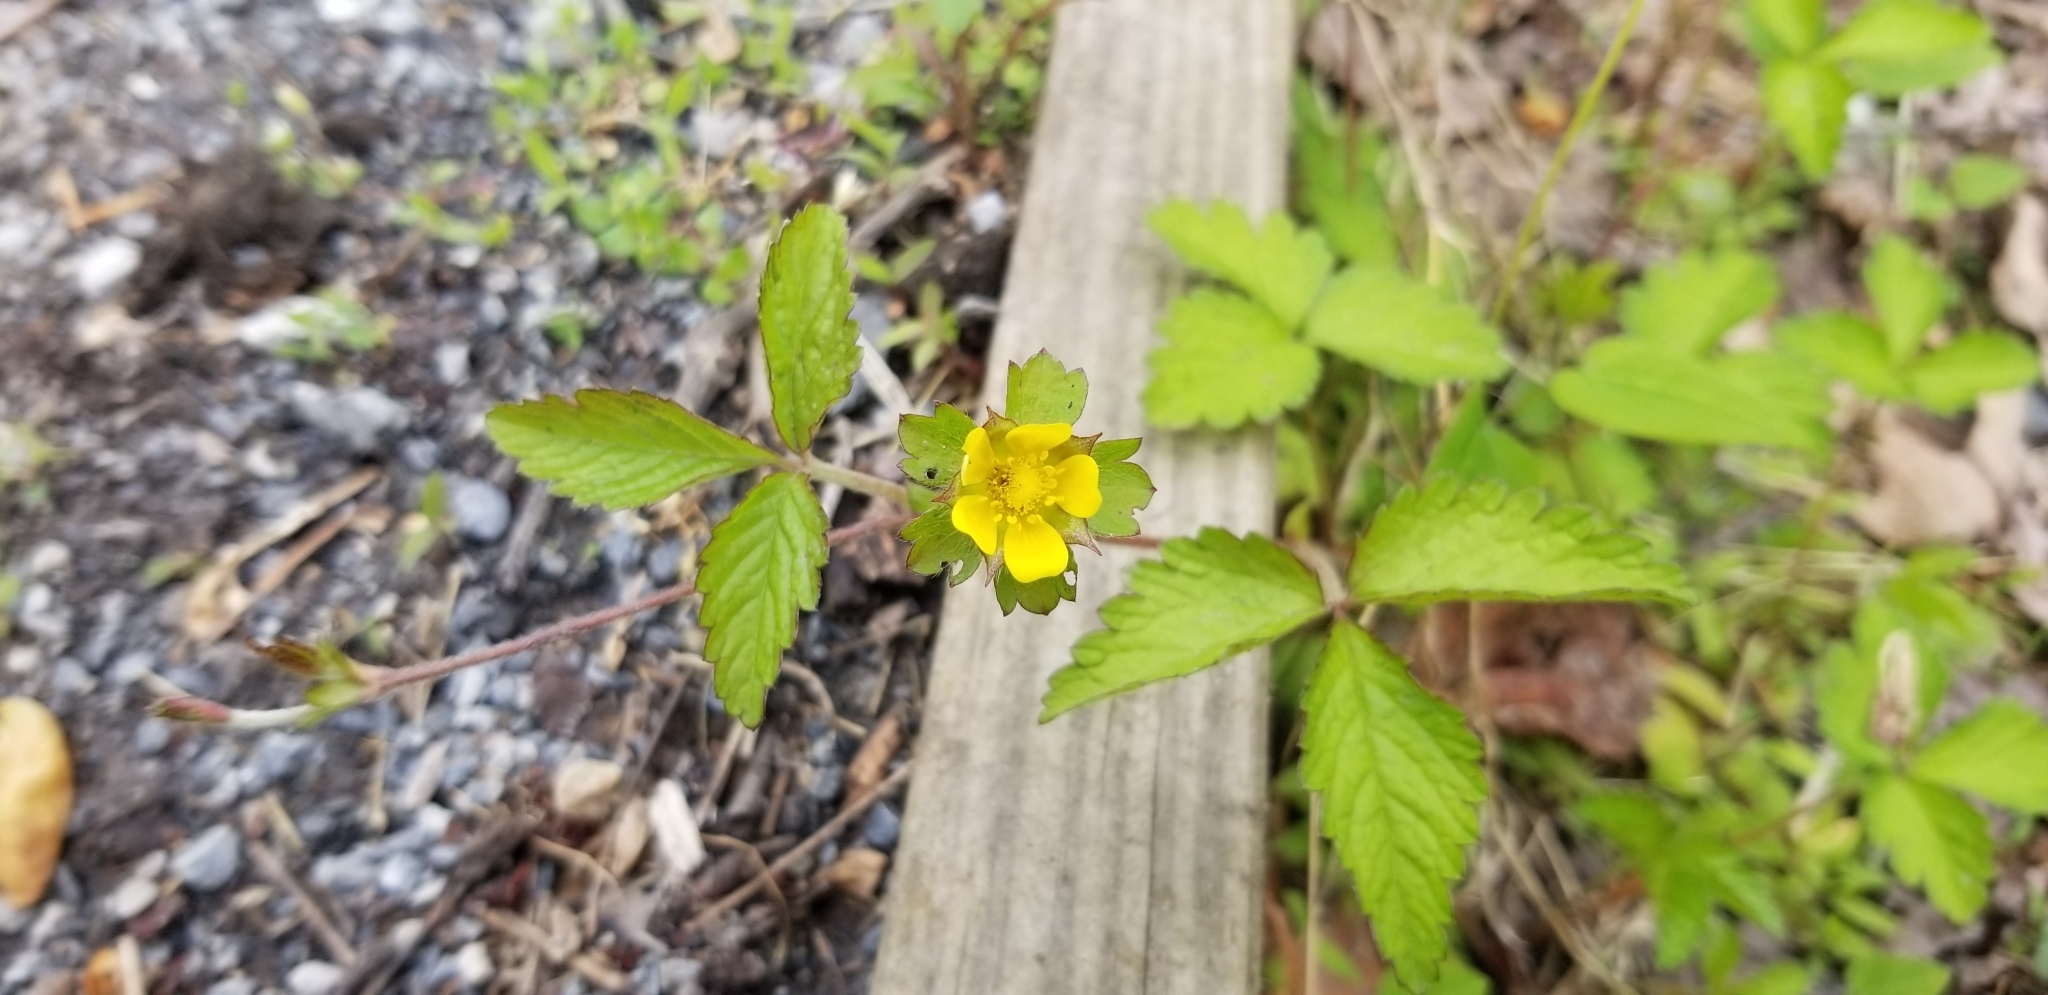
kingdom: Plantae
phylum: Tracheophyta
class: Magnoliopsida
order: Rosales
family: Rosaceae
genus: Potentilla
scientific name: Potentilla indica
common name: Yellow-flowered strawberry
